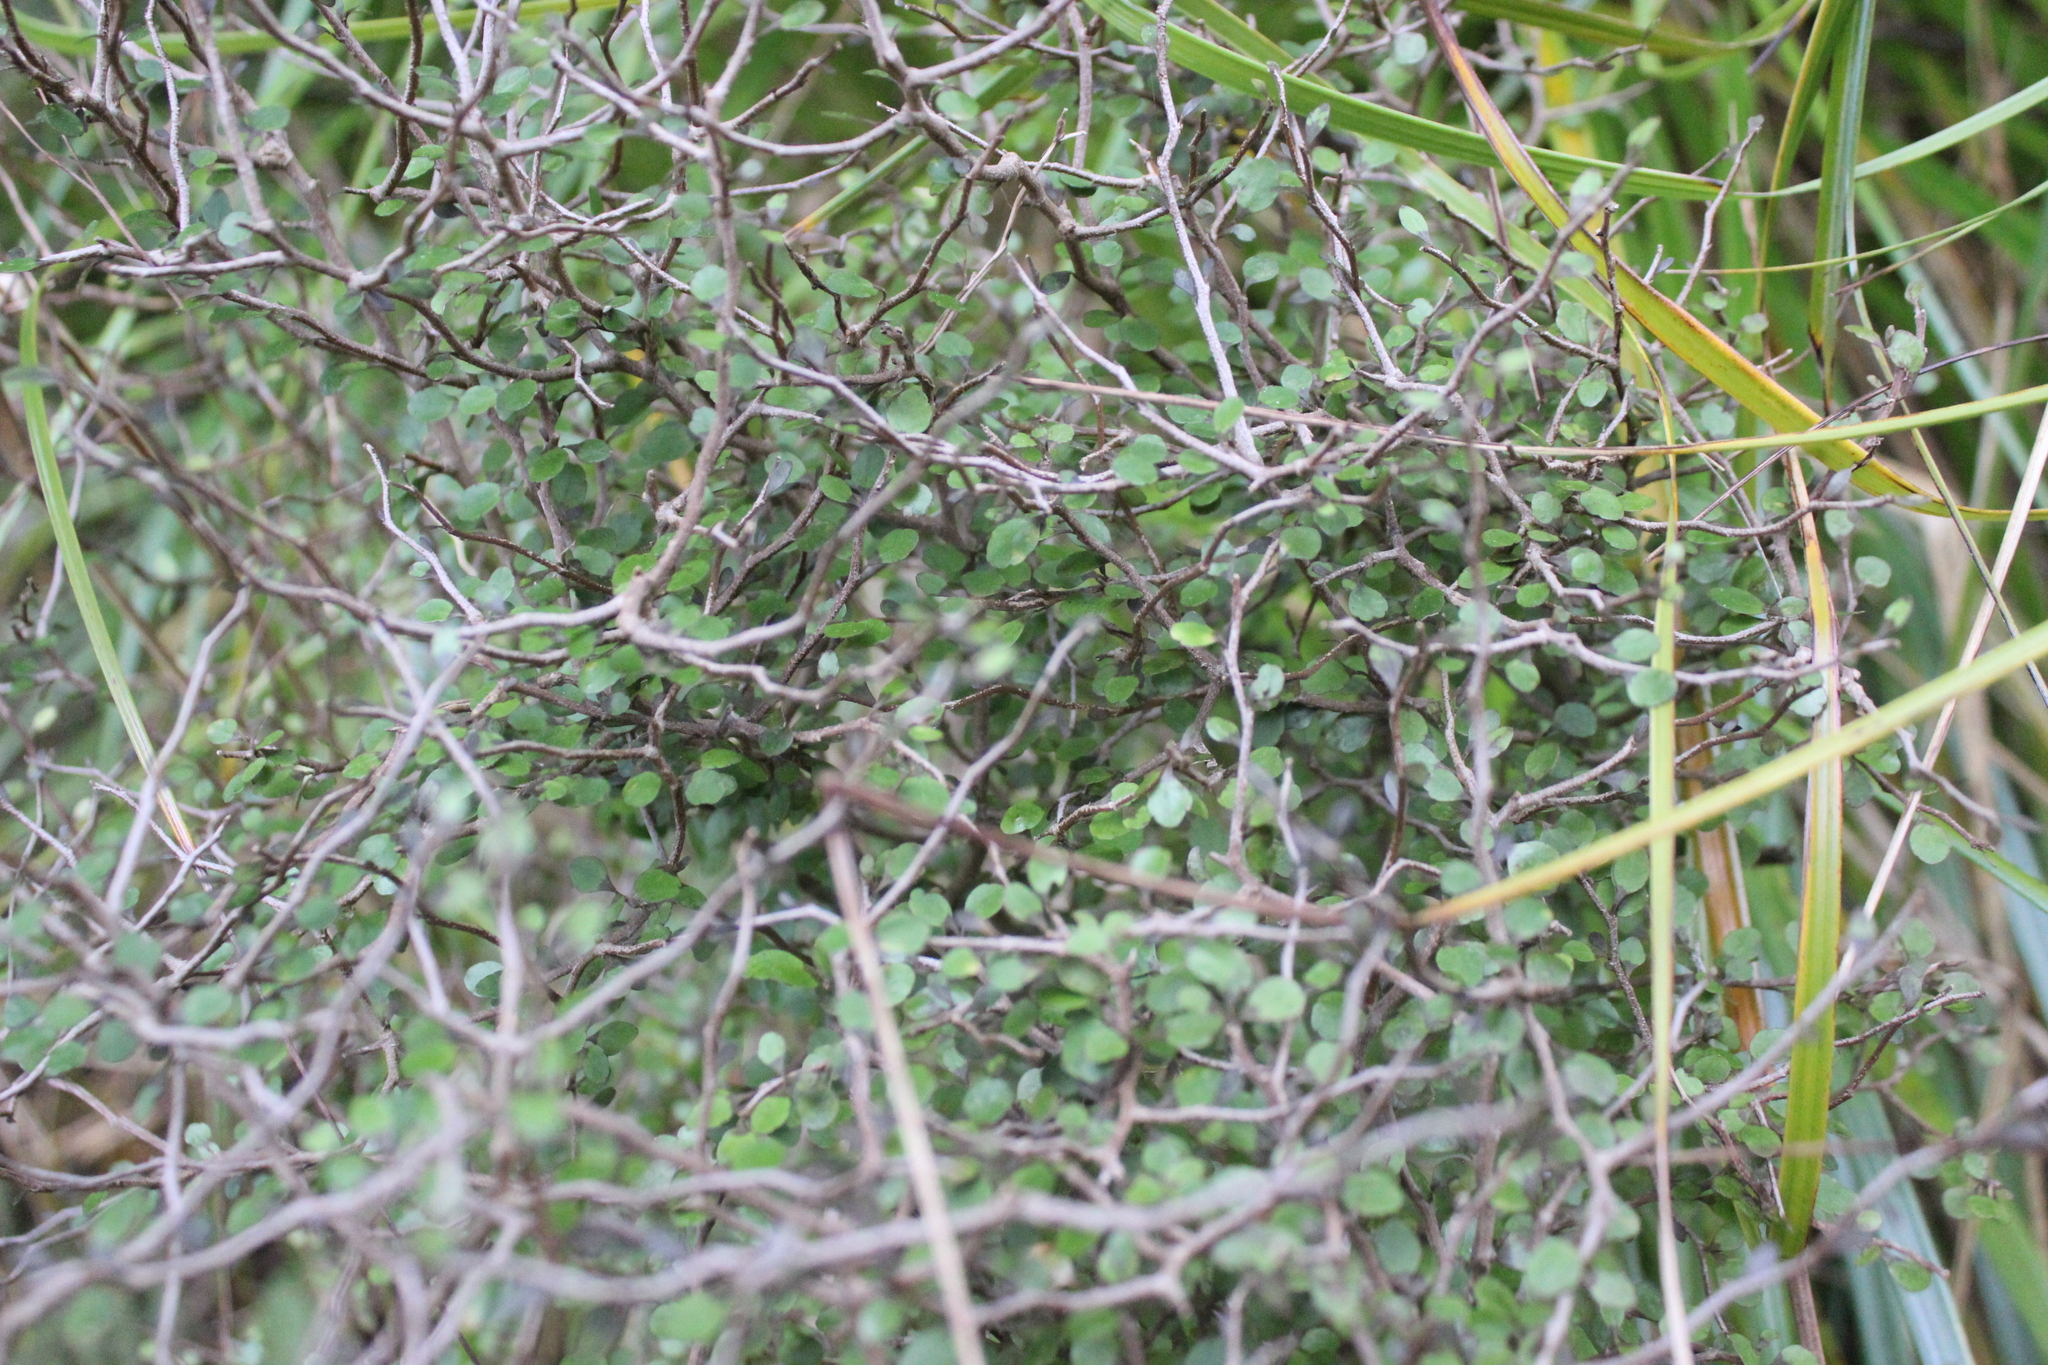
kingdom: Plantae
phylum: Tracheophyta
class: Magnoliopsida
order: Apiales
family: Araliaceae
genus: Raukaua
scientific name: Raukaua anomalus
